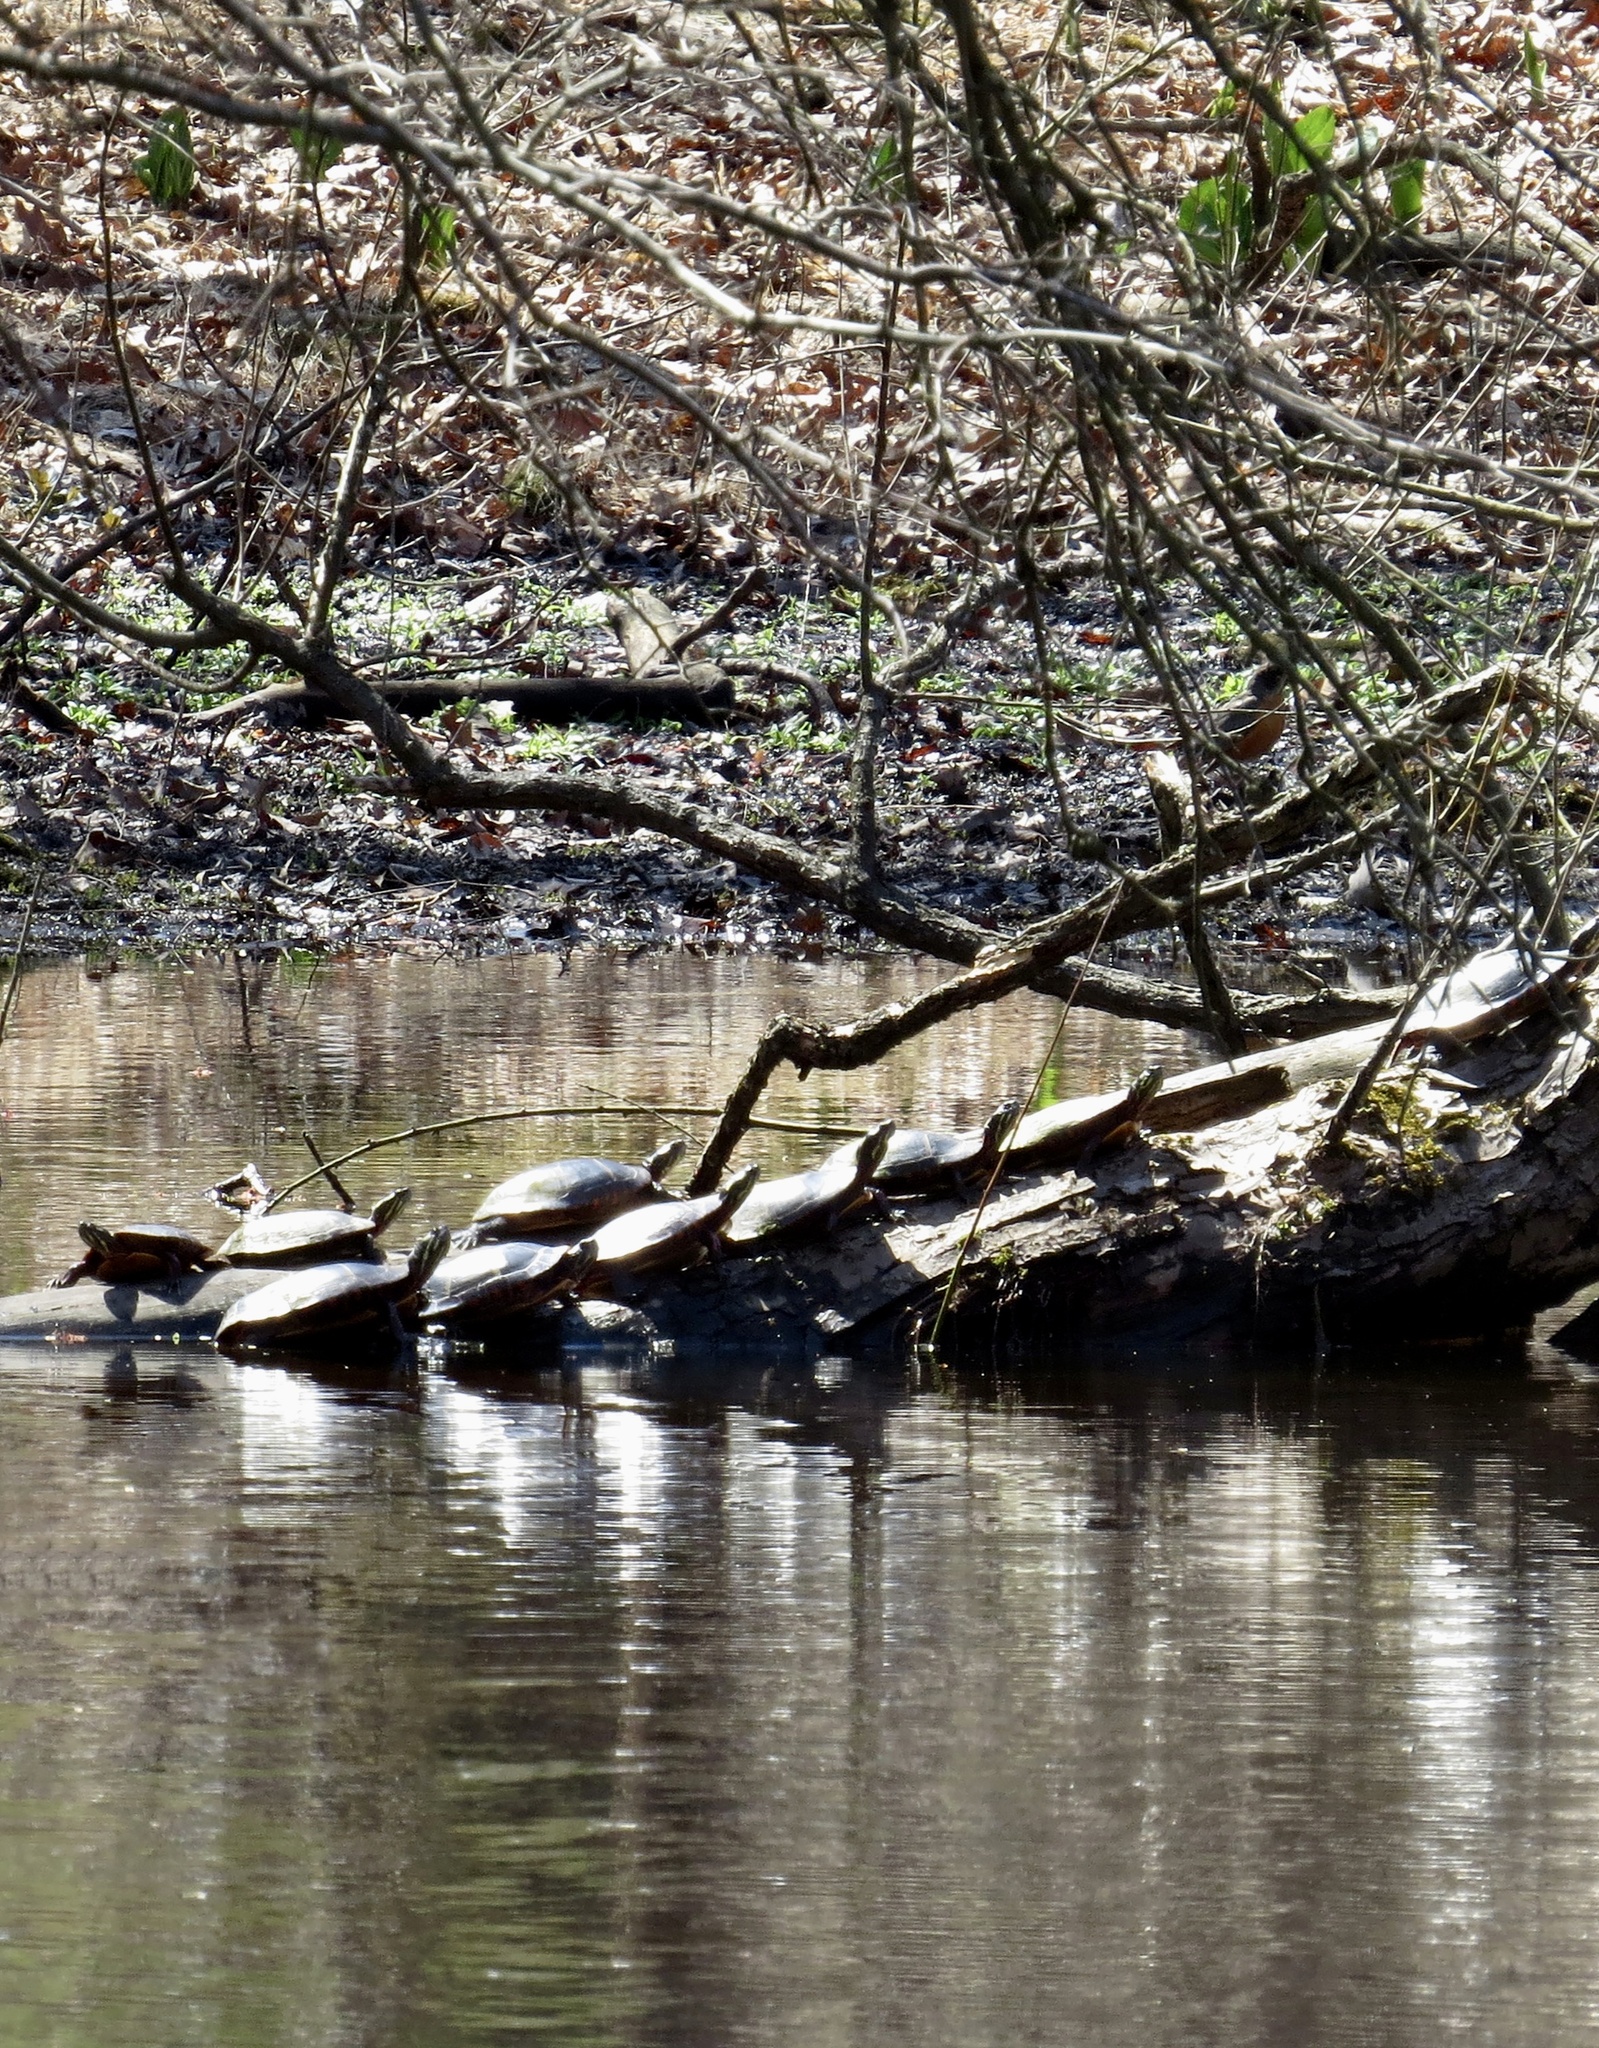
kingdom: Animalia
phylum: Chordata
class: Testudines
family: Emydidae
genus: Chrysemys
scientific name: Chrysemys picta
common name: Painted turtle
